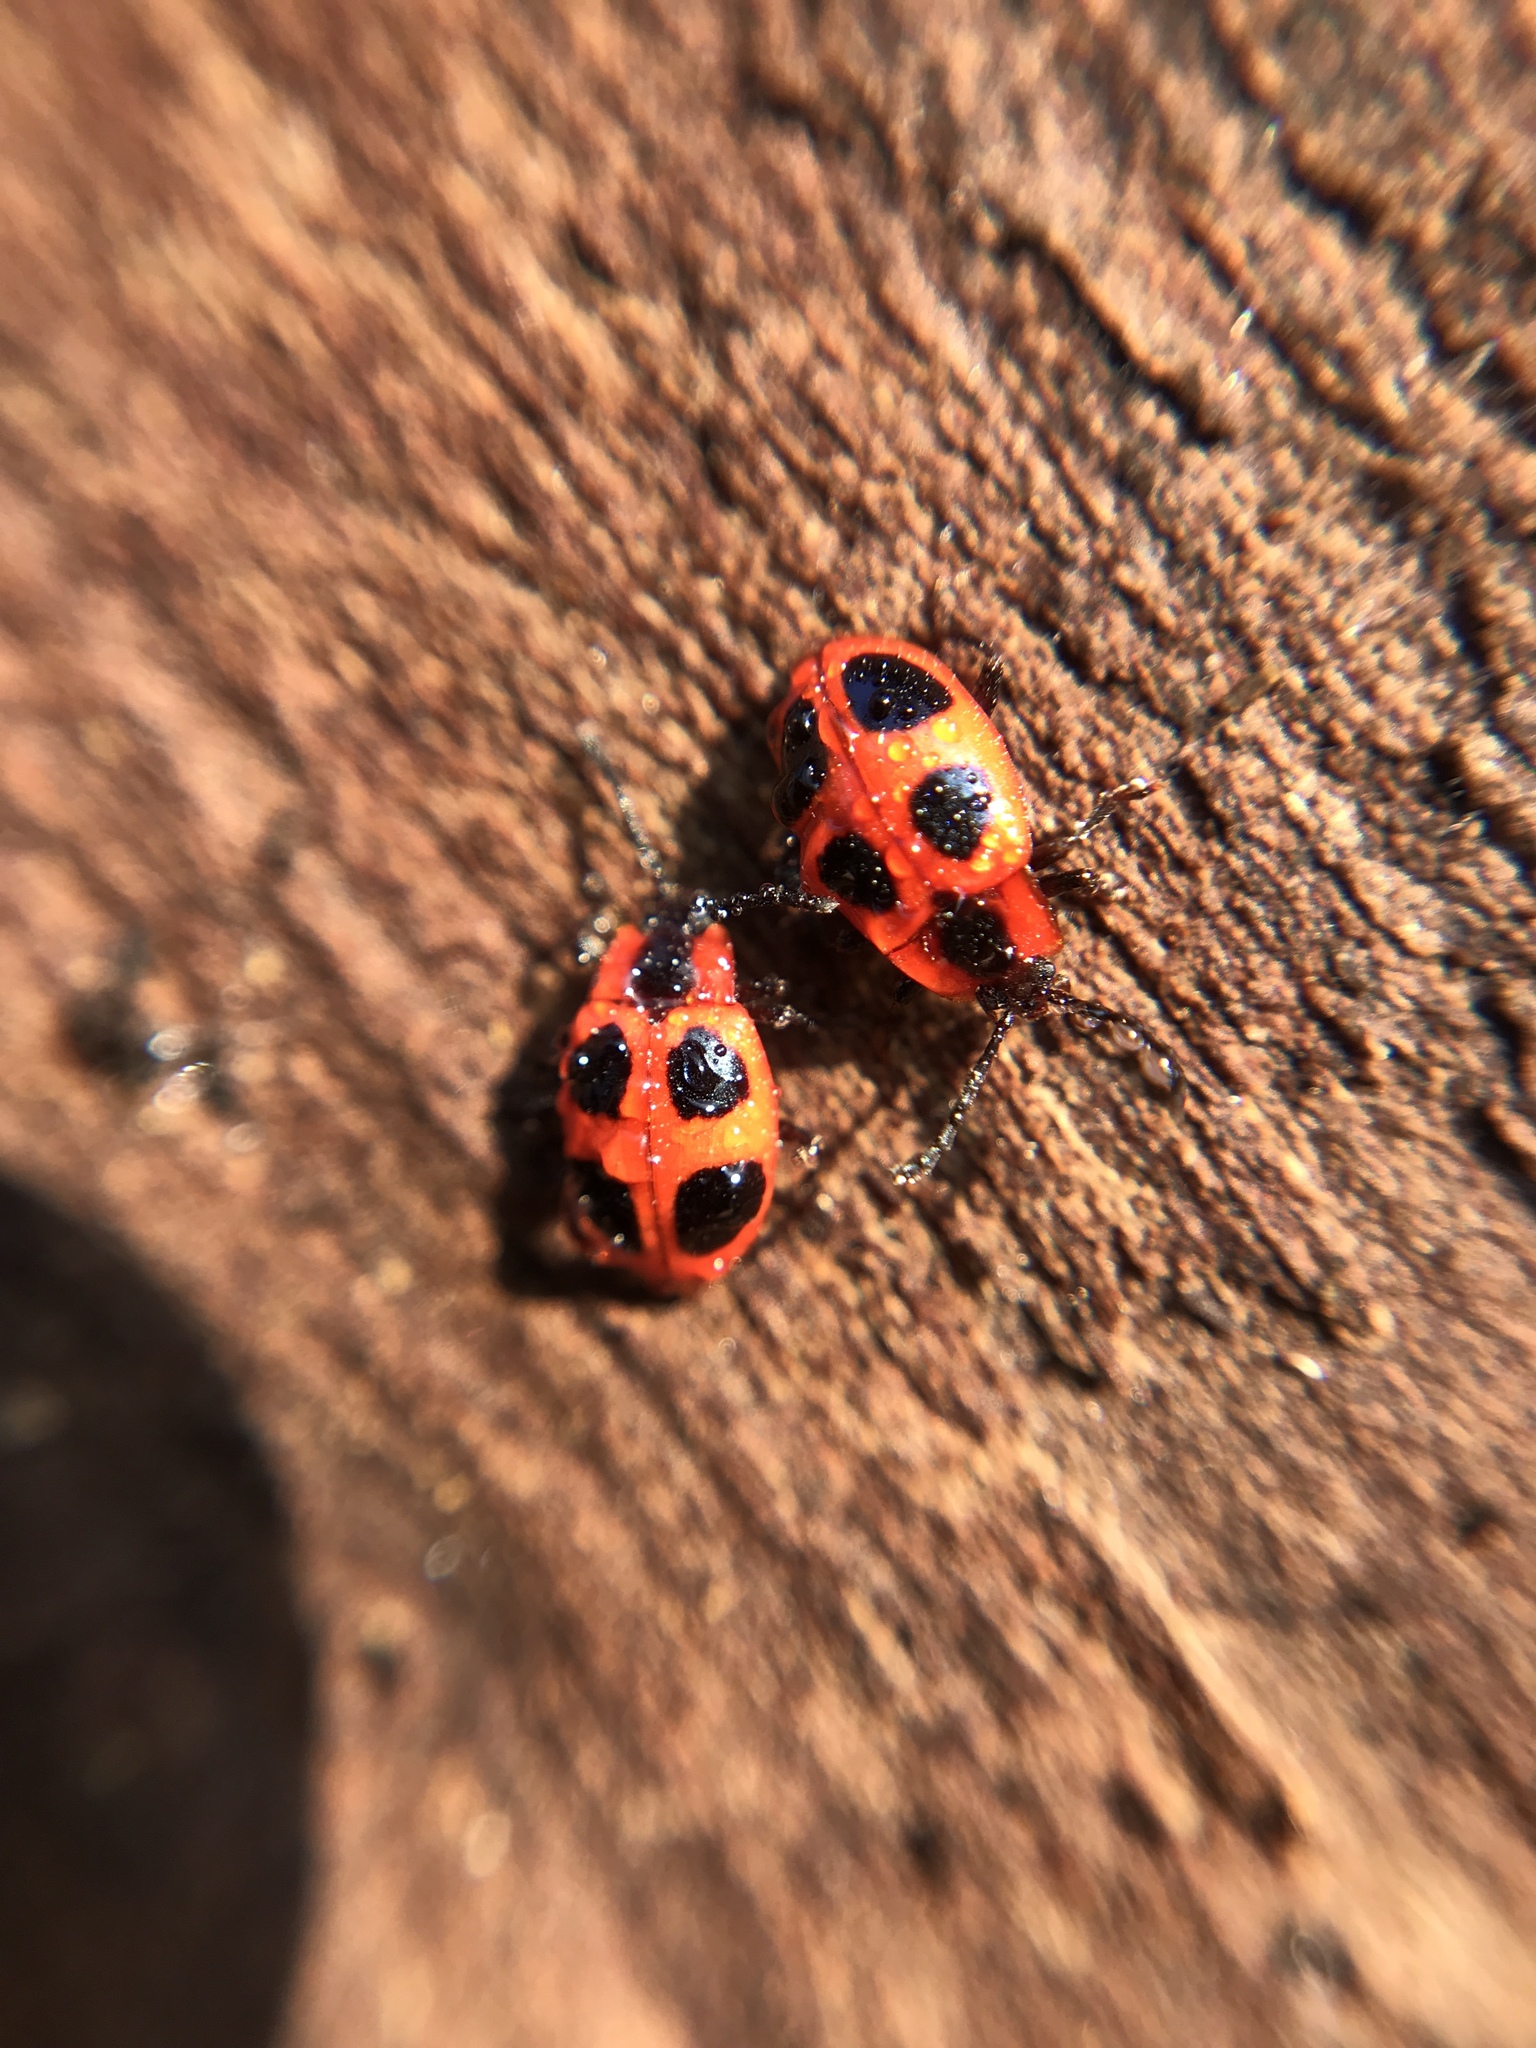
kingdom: Animalia
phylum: Arthropoda
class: Insecta
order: Coleoptera
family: Endomychidae
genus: Endomychus
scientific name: Endomychus coccineus
